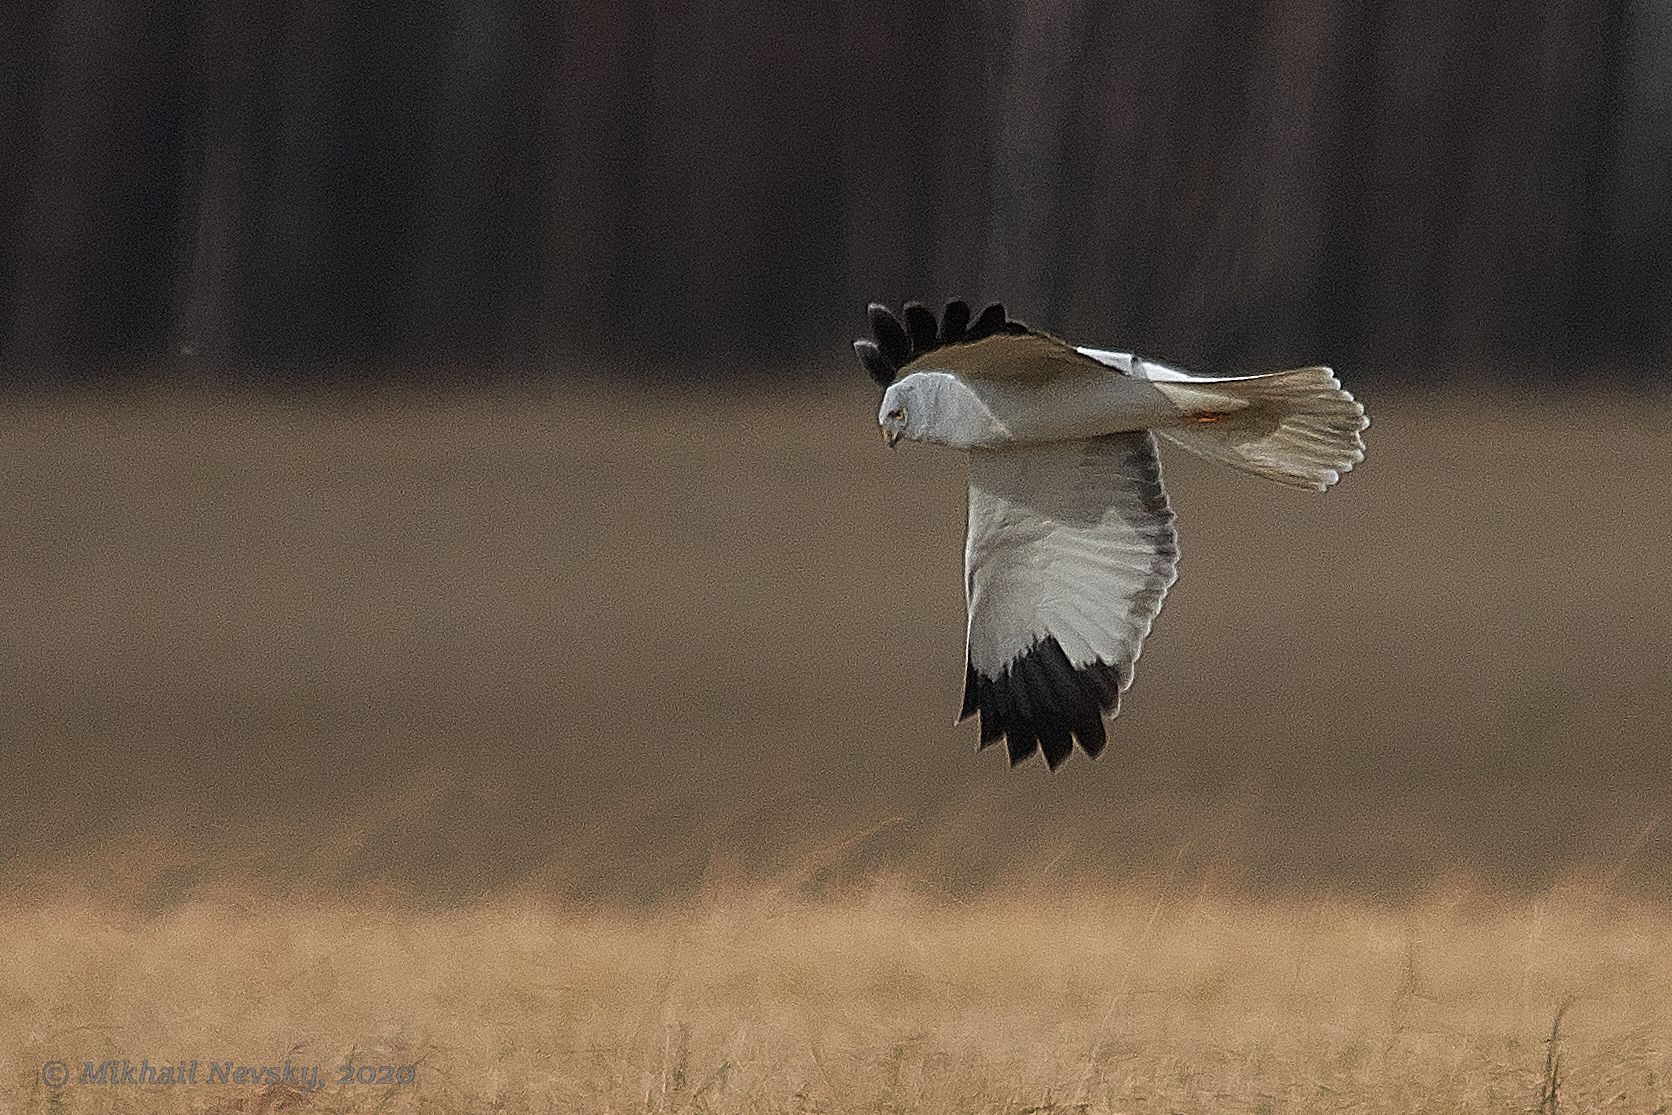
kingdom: Animalia
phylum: Chordata
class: Aves
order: Accipitriformes
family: Accipitridae
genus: Circus
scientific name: Circus cyaneus
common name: Hen harrier
